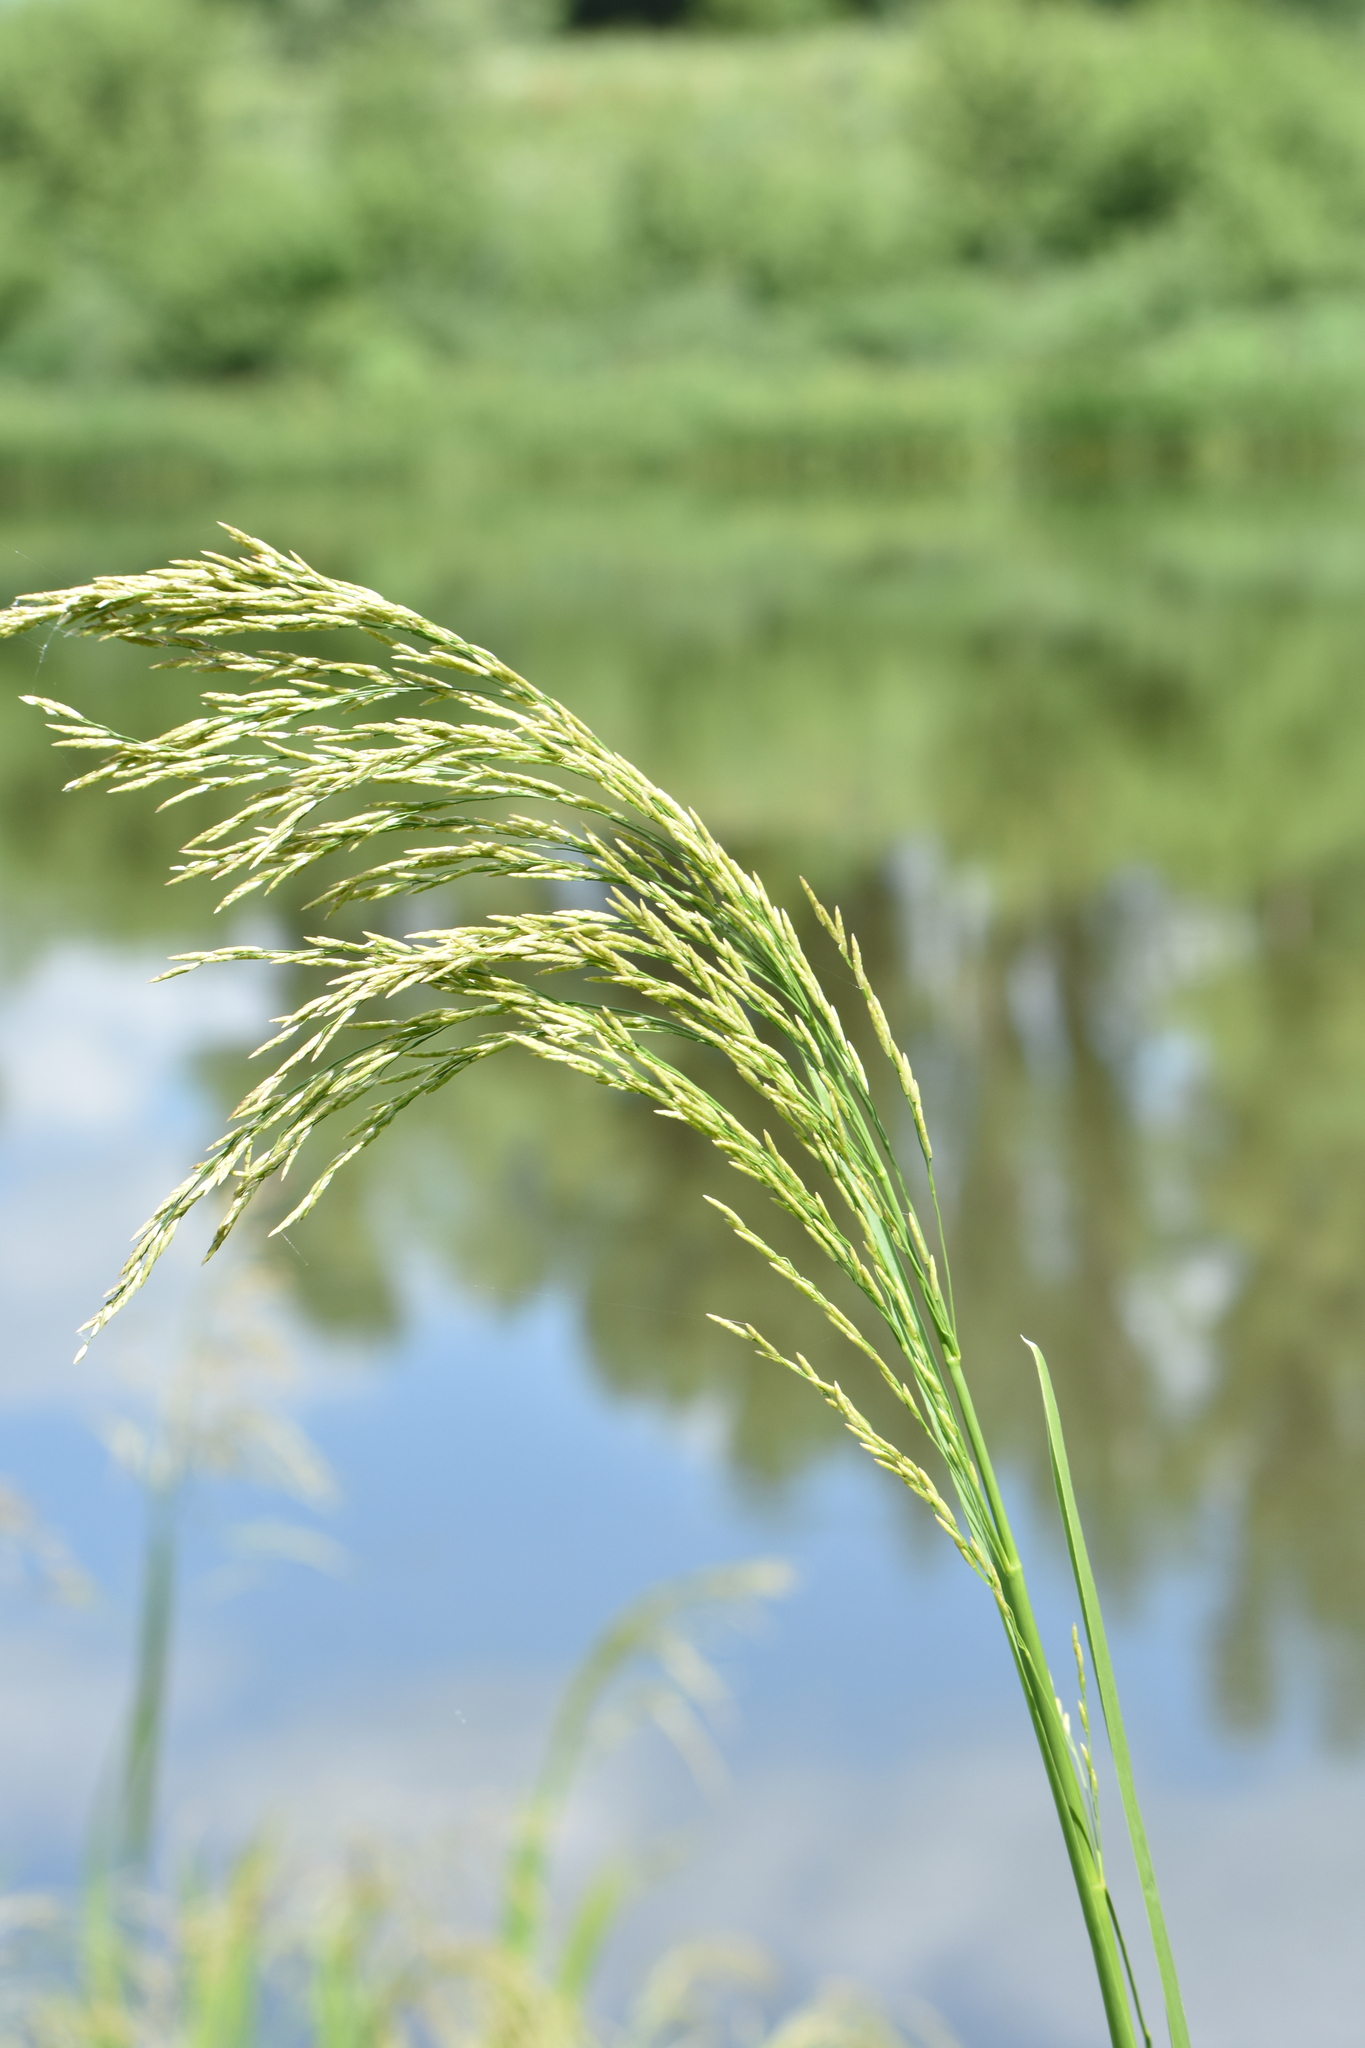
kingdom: Plantae
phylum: Tracheophyta
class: Liliopsida
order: Poales
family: Poaceae
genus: Glyceria
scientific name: Glyceria maxima
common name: Reed mannagrass
